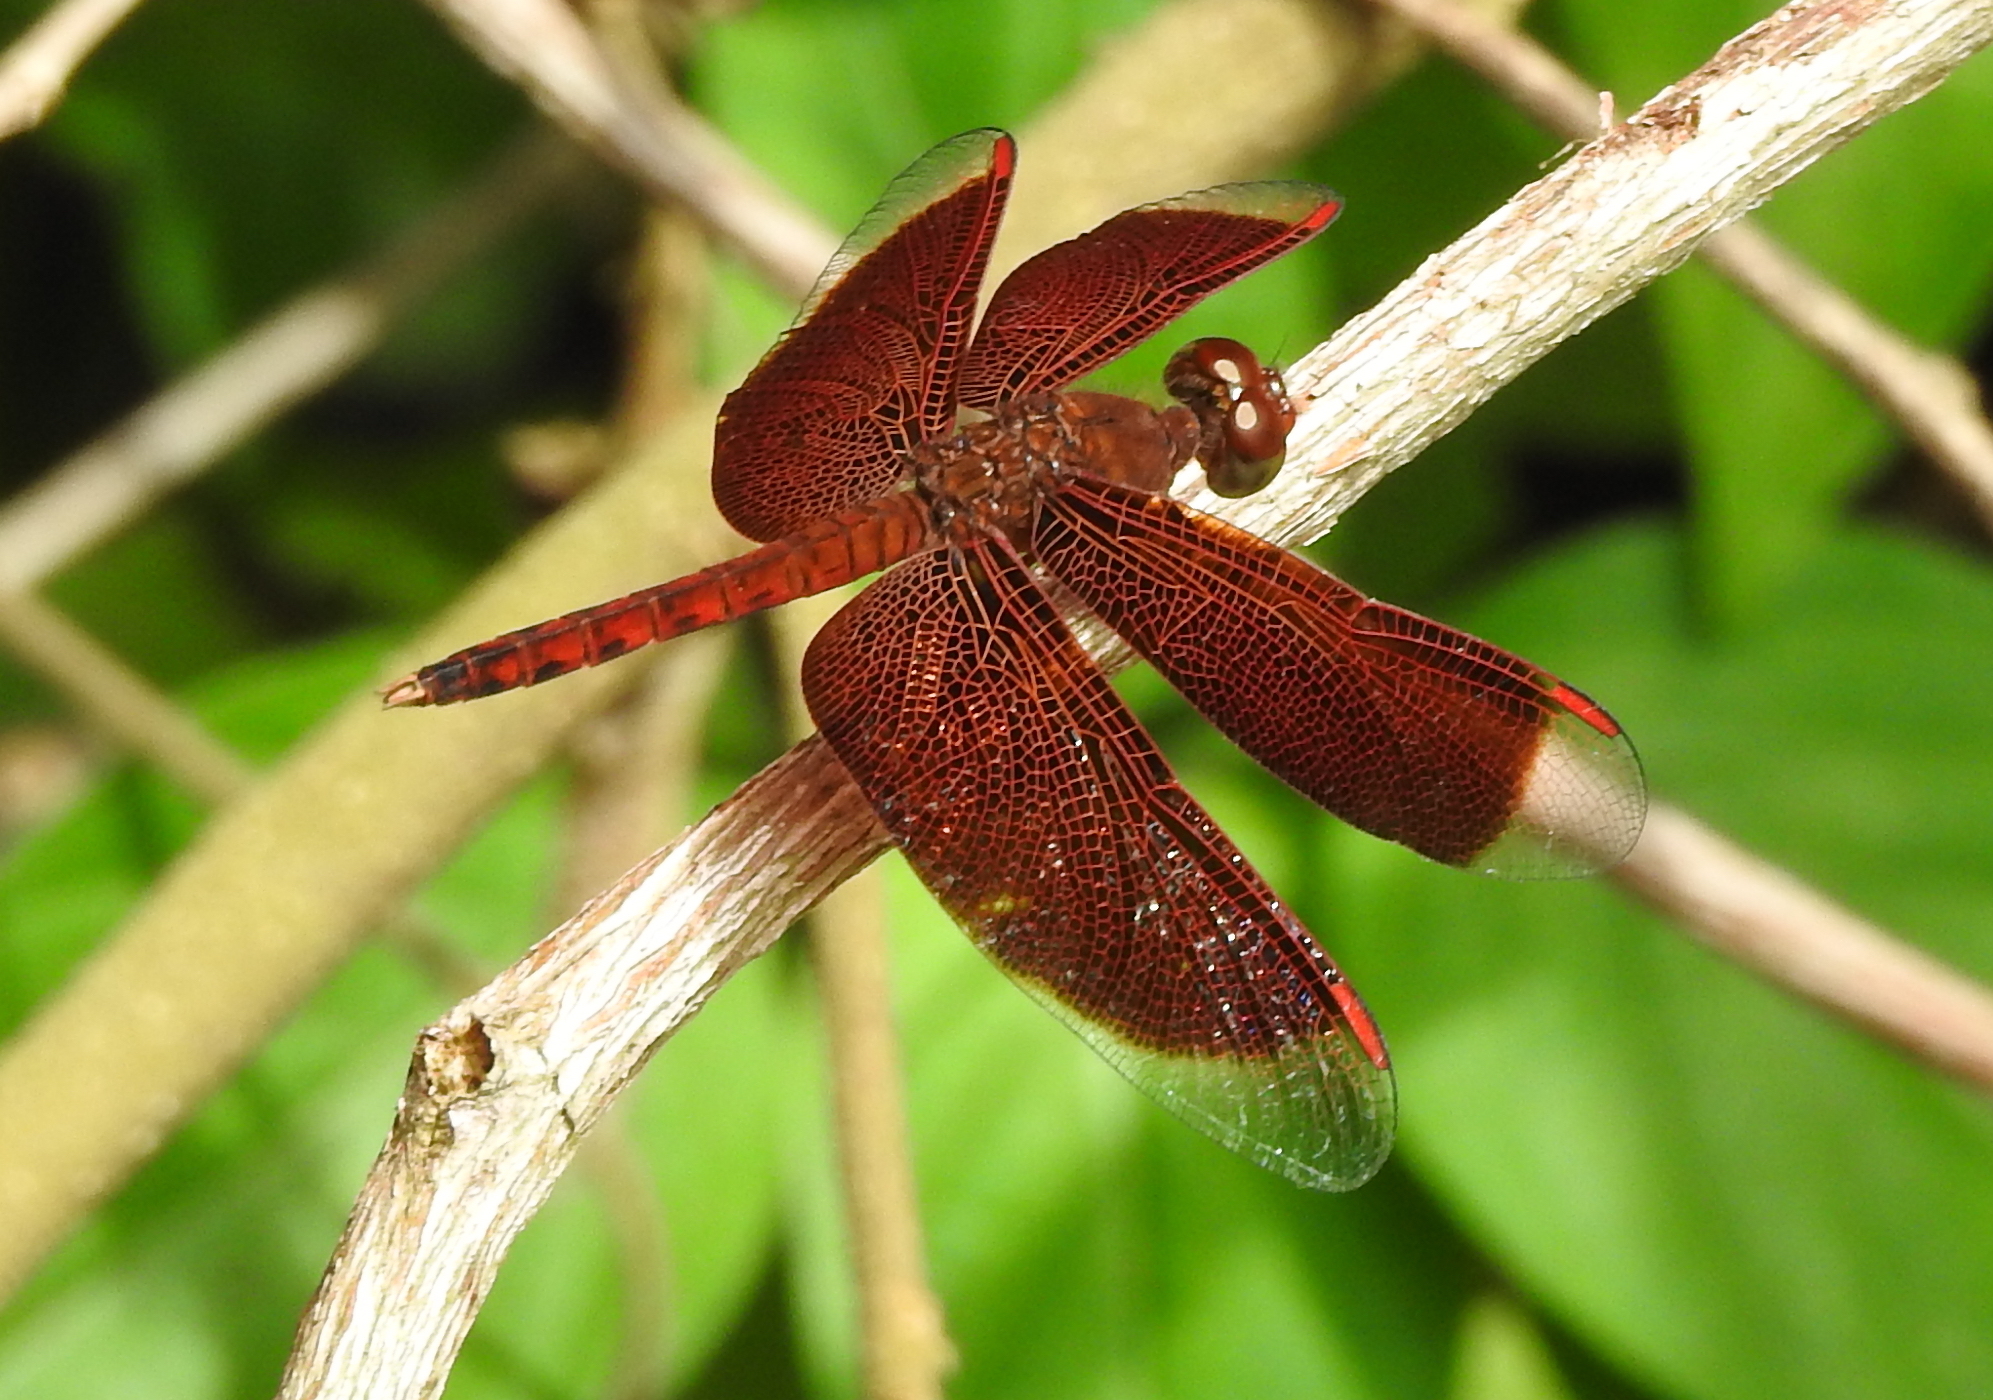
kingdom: Animalia
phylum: Arthropoda
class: Insecta
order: Odonata
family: Libellulidae
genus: Neurothemis
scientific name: Neurothemis fluctuans
